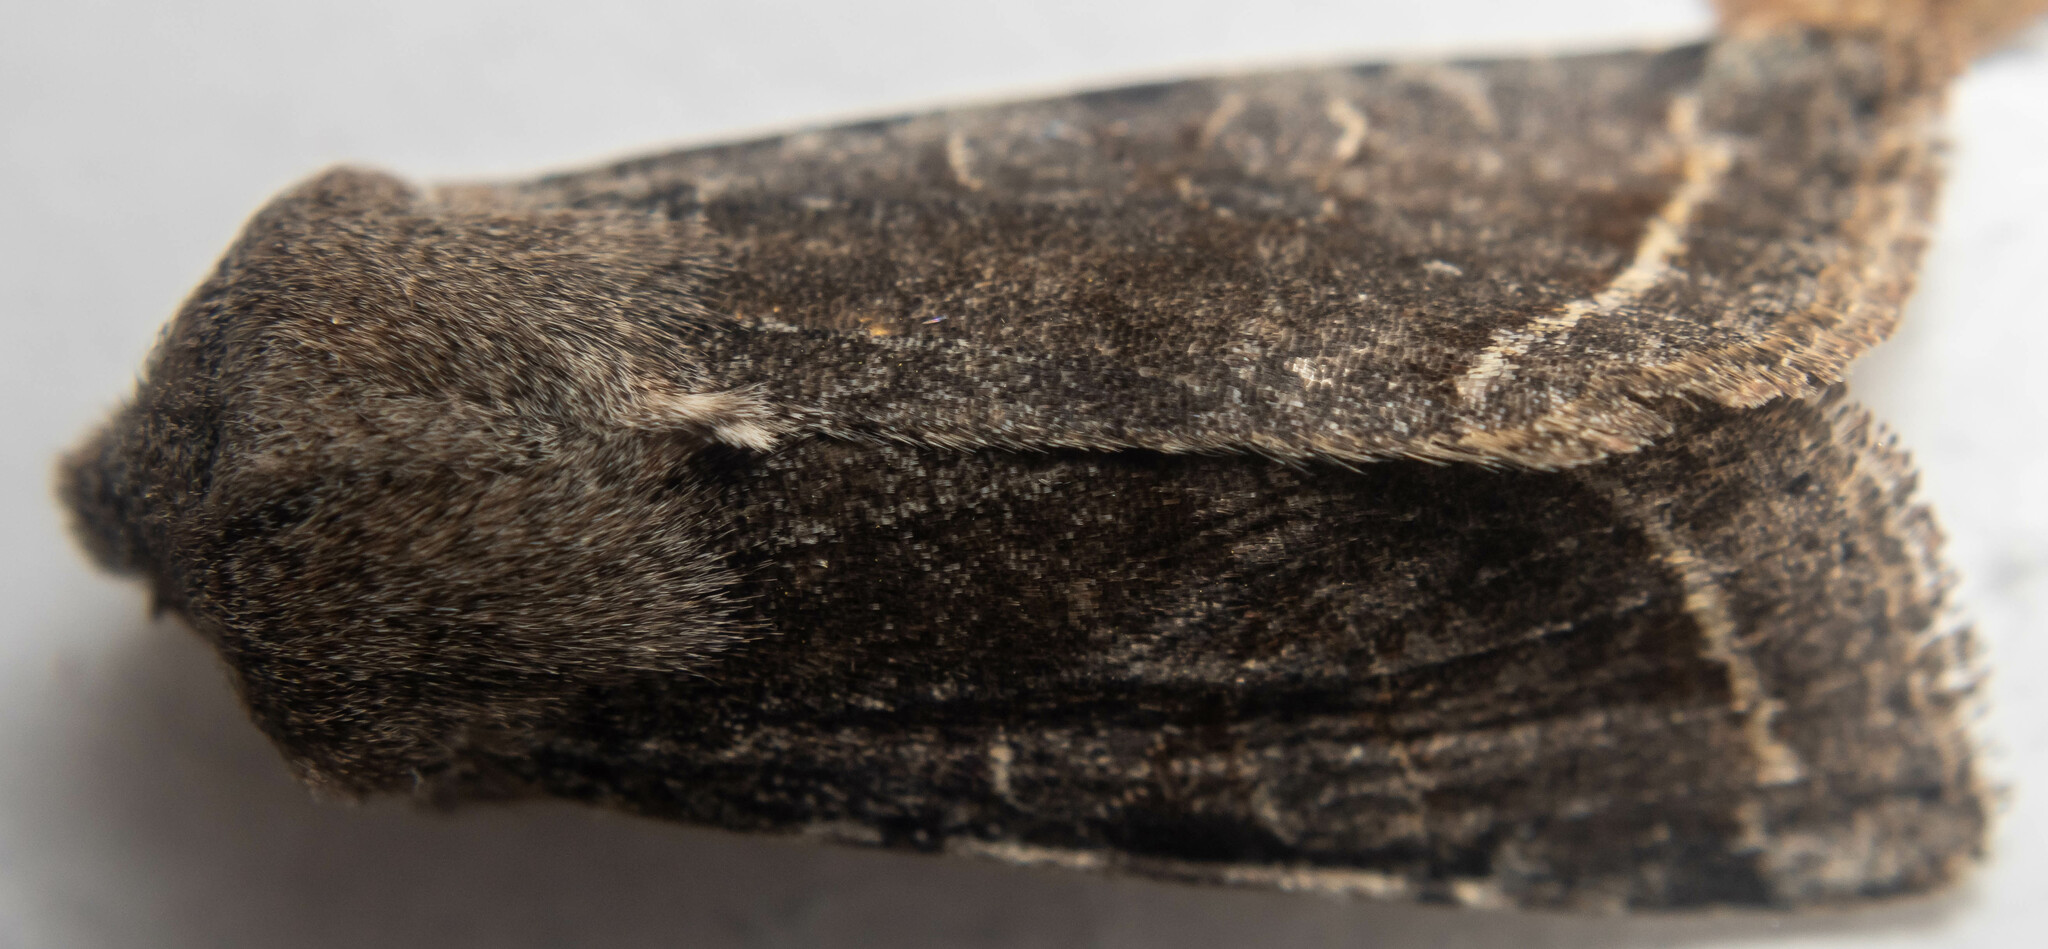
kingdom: Animalia
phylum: Arthropoda
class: Insecta
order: Lepidoptera
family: Noctuidae
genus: Orthosia
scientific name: Orthosia incerta
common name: Clouded drab
